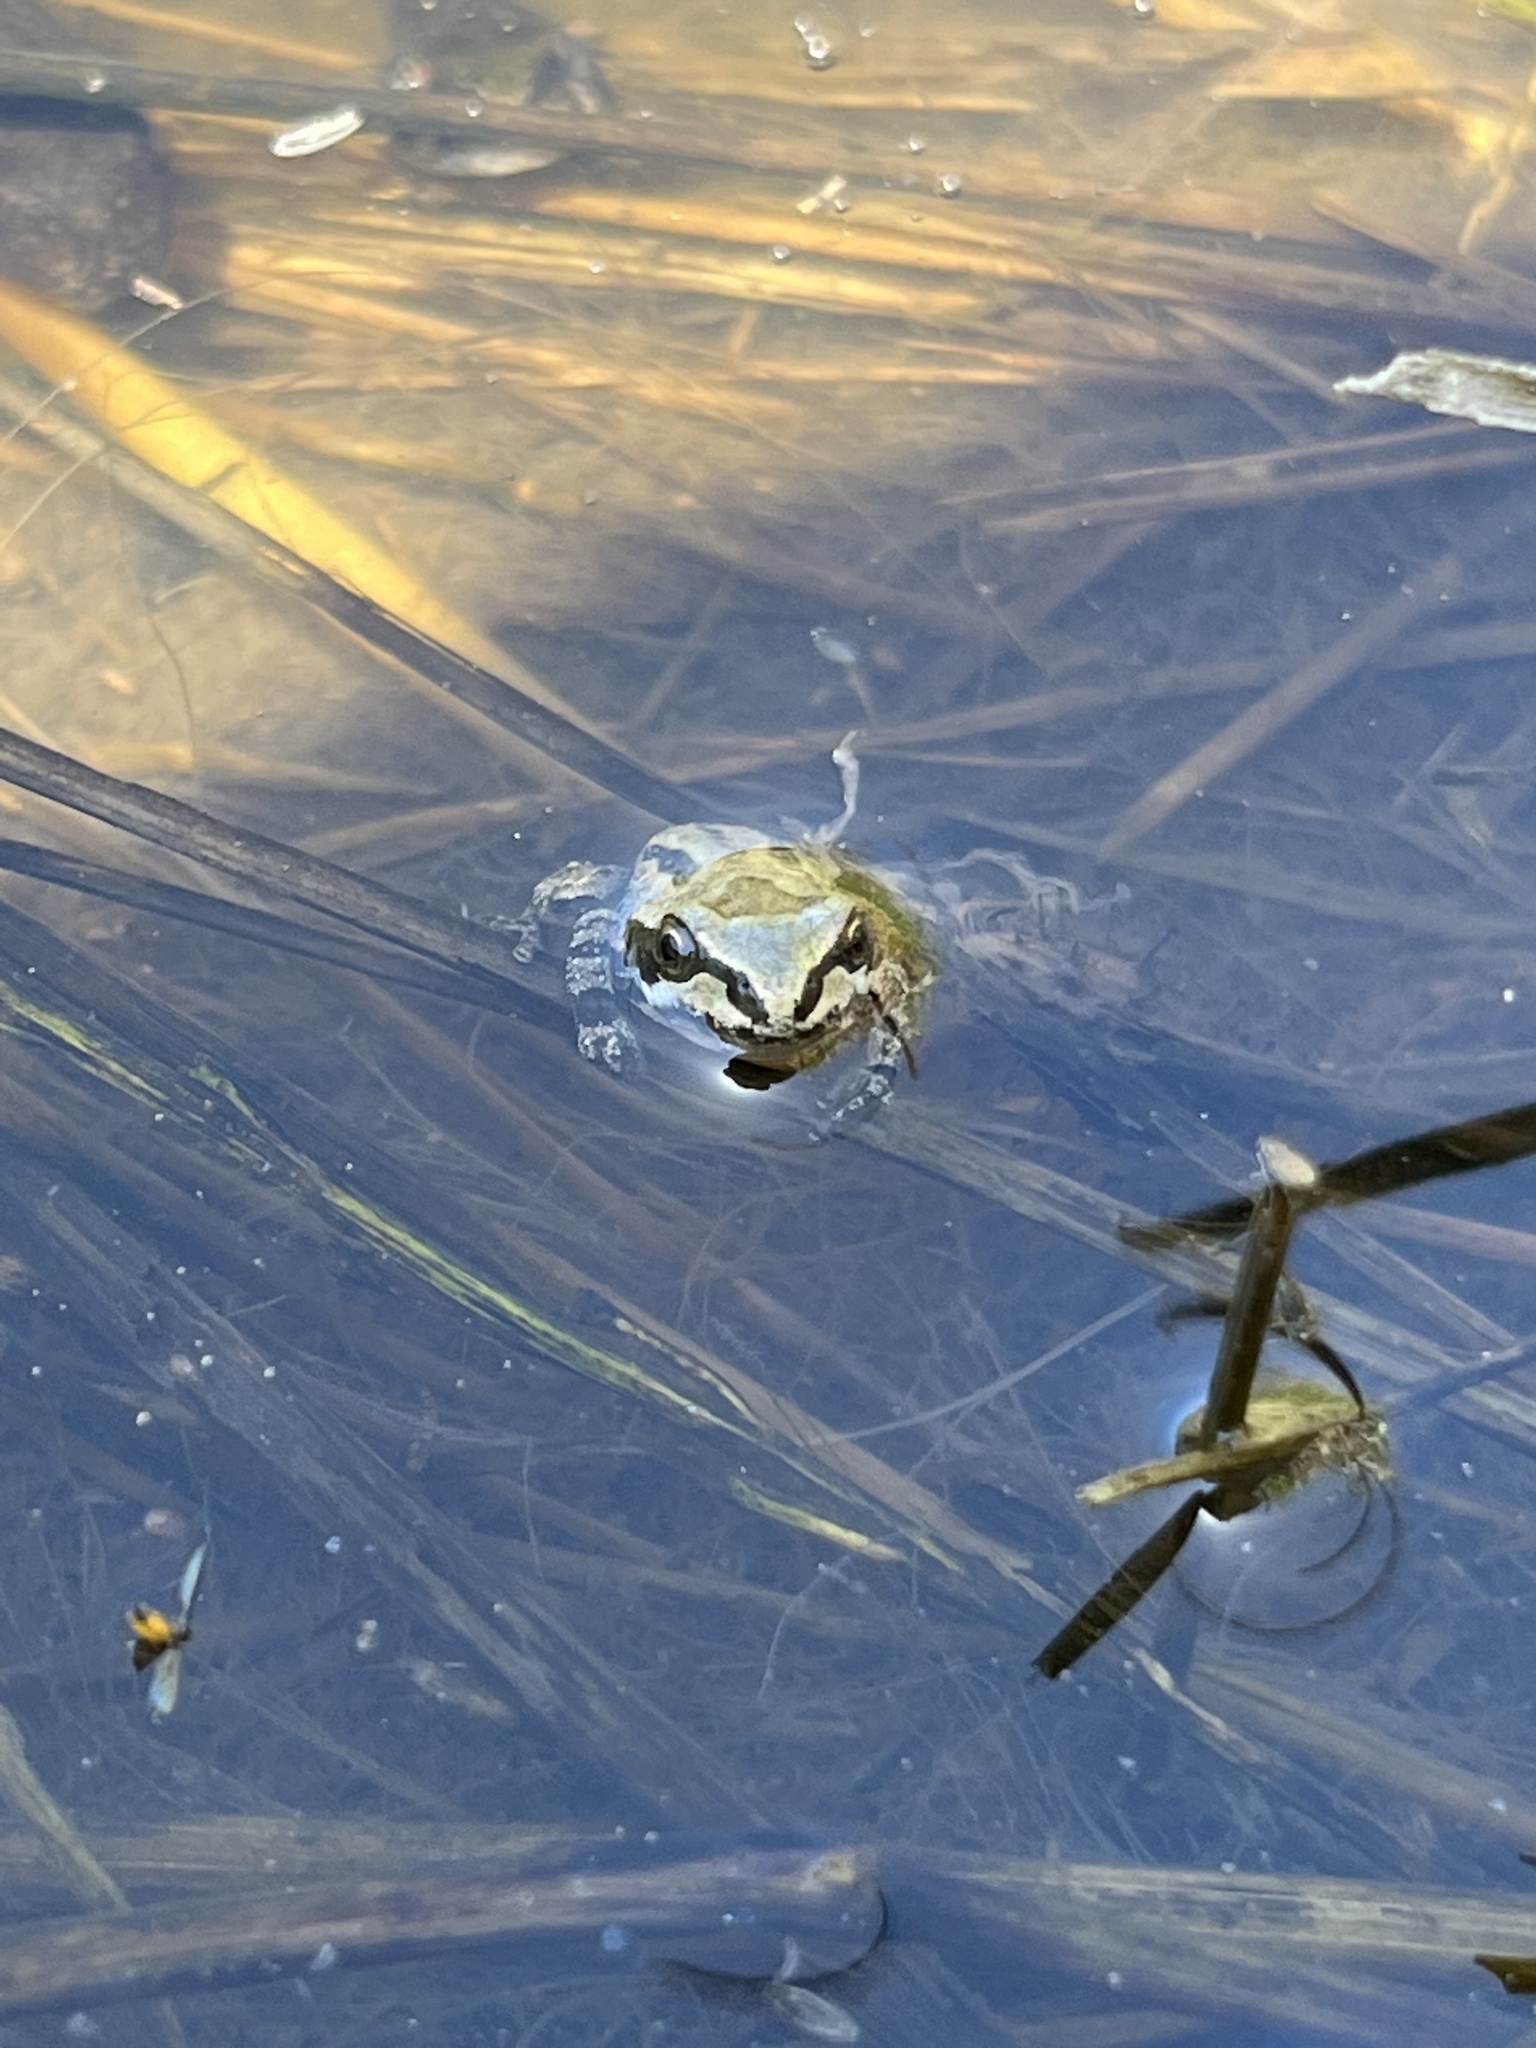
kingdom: Animalia
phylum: Chordata
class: Amphibia
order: Anura
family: Hylidae
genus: Pseudacris
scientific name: Pseudacris regilla
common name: Pacific chorus frog
